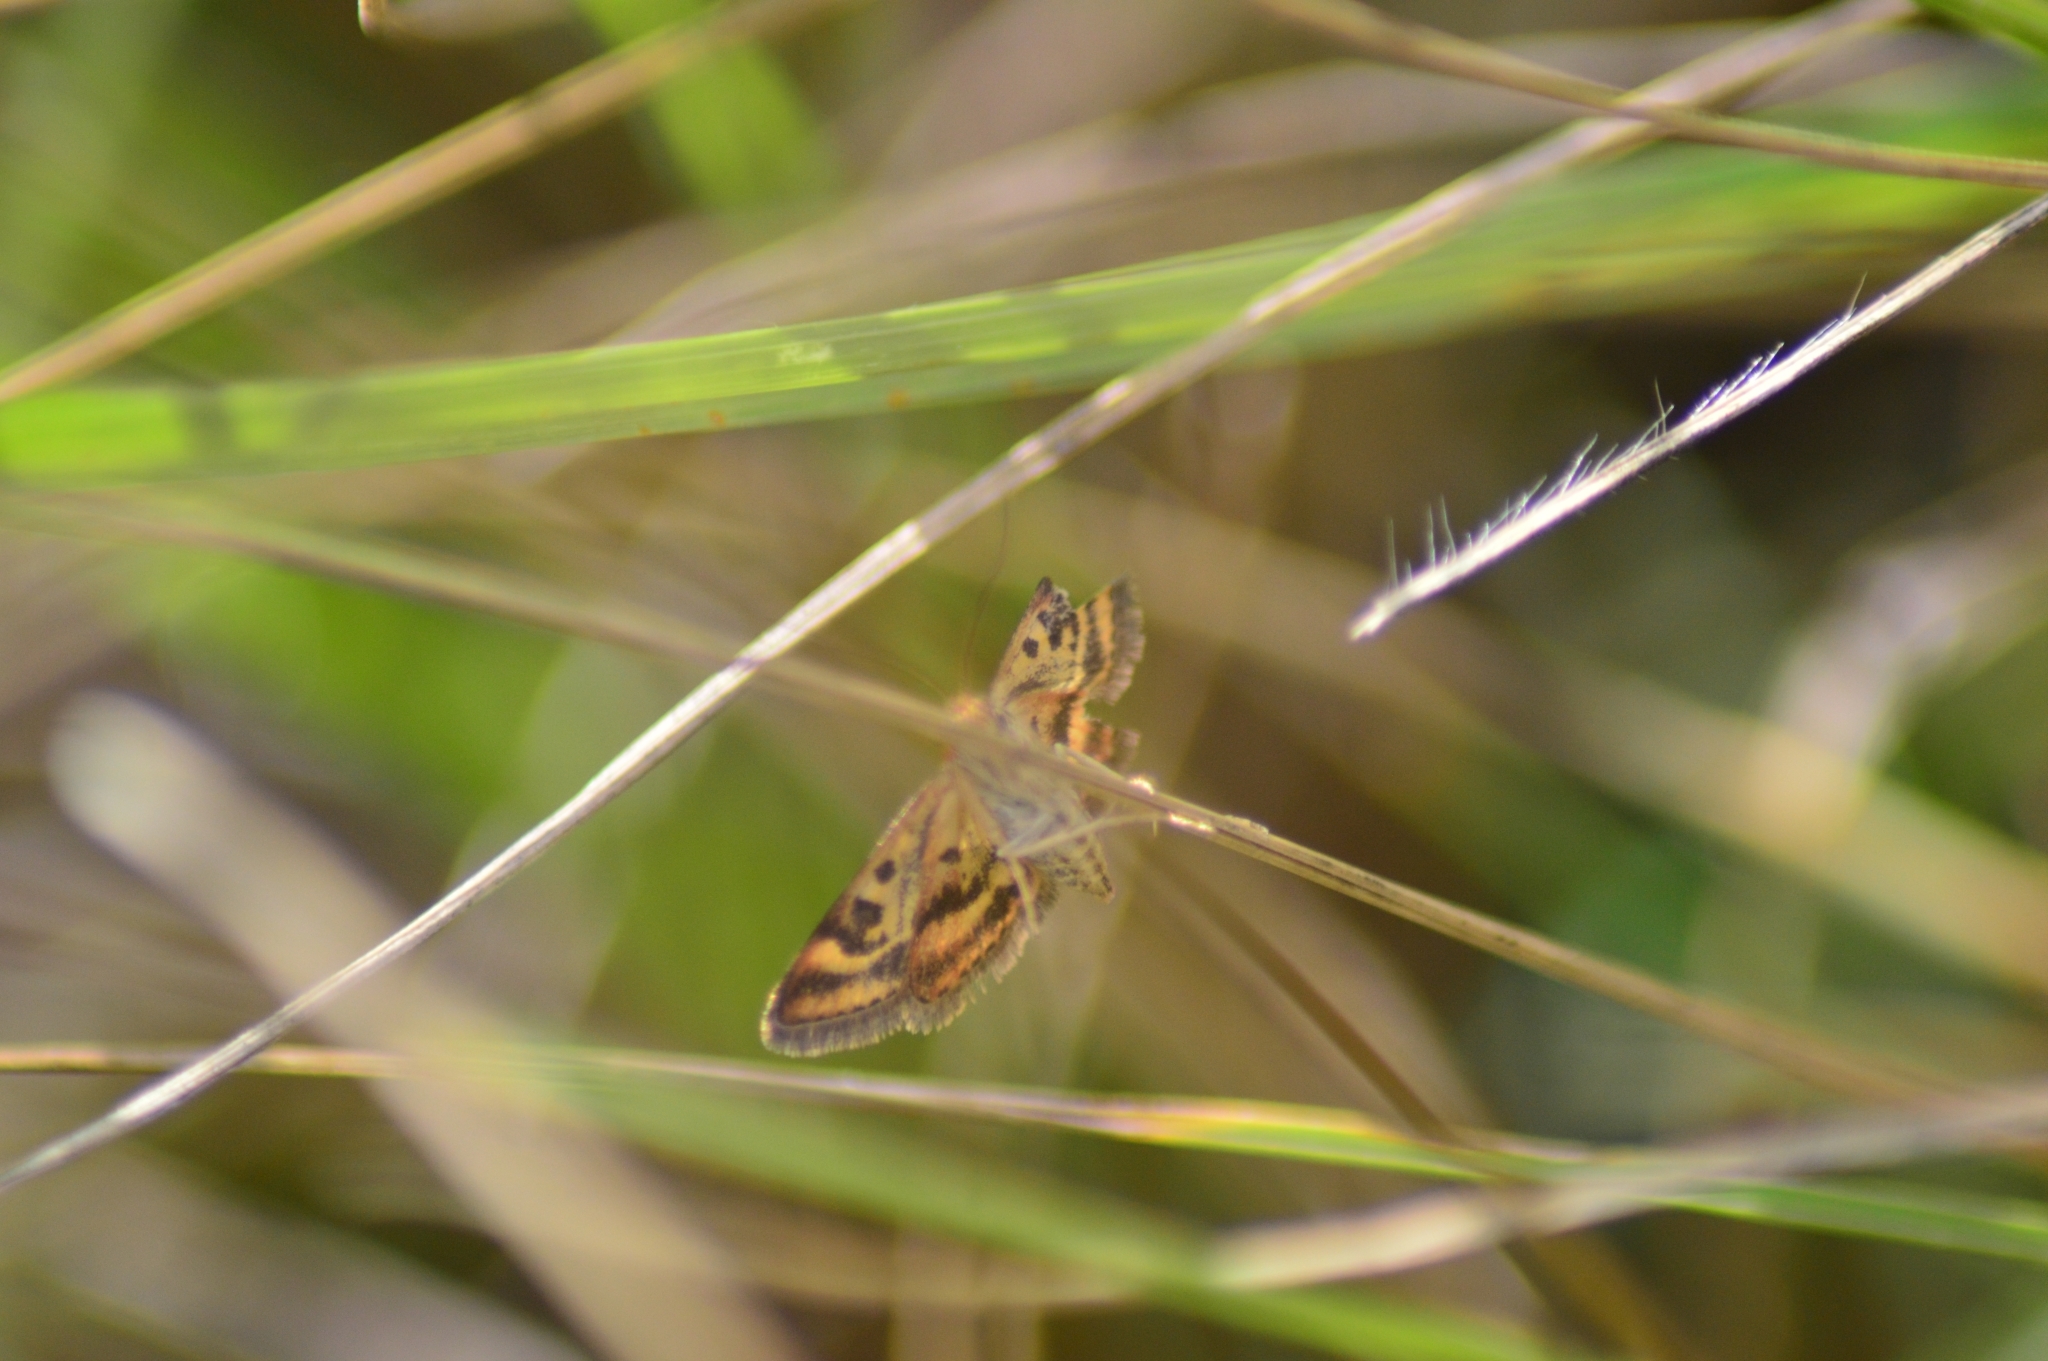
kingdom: Animalia
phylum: Arthropoda
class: Insecta
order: Lepidoptera
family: Crambidae
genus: Pyrausta
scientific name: Pyrausta purpuralis
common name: Common purple & gold
